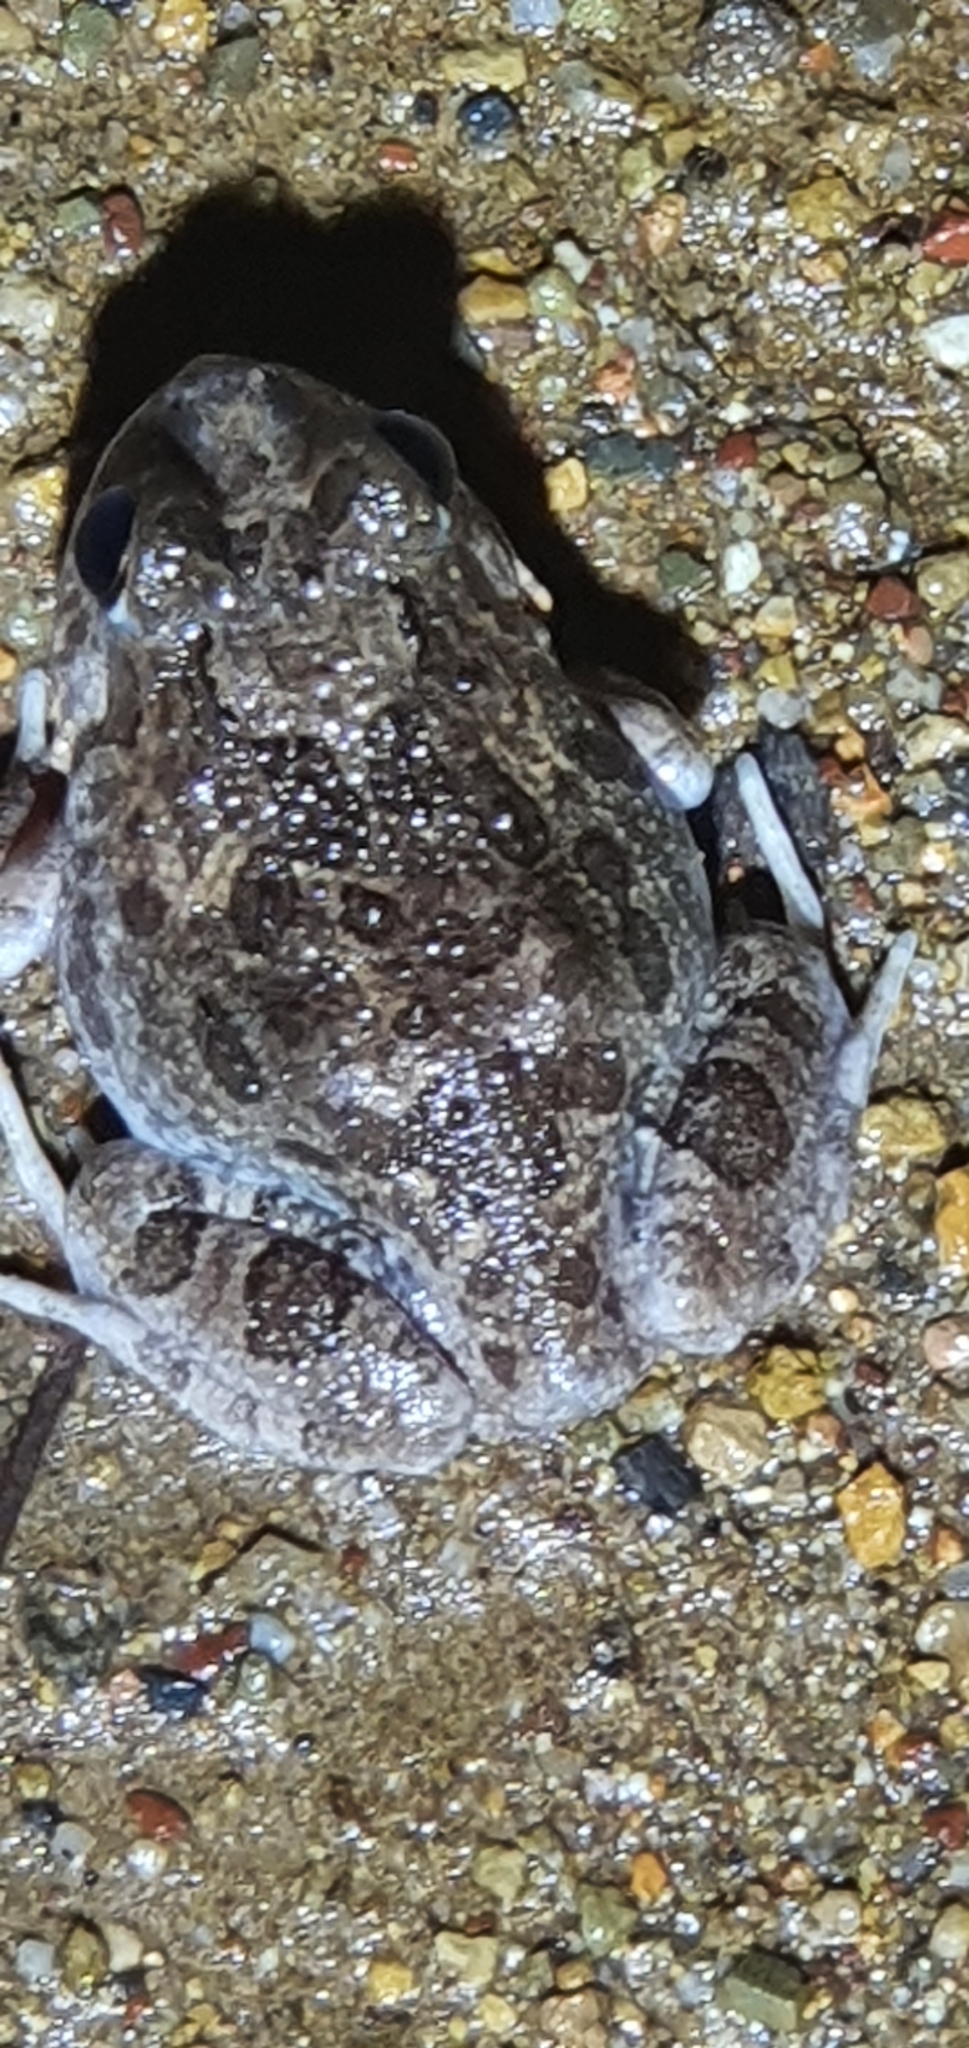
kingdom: Animalia
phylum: Chordata
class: Amphibia
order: Anura
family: Limnodynastidae
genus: Platyplectrum
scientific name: Platyplectrum ornatum
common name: Ornate burrowing frog
